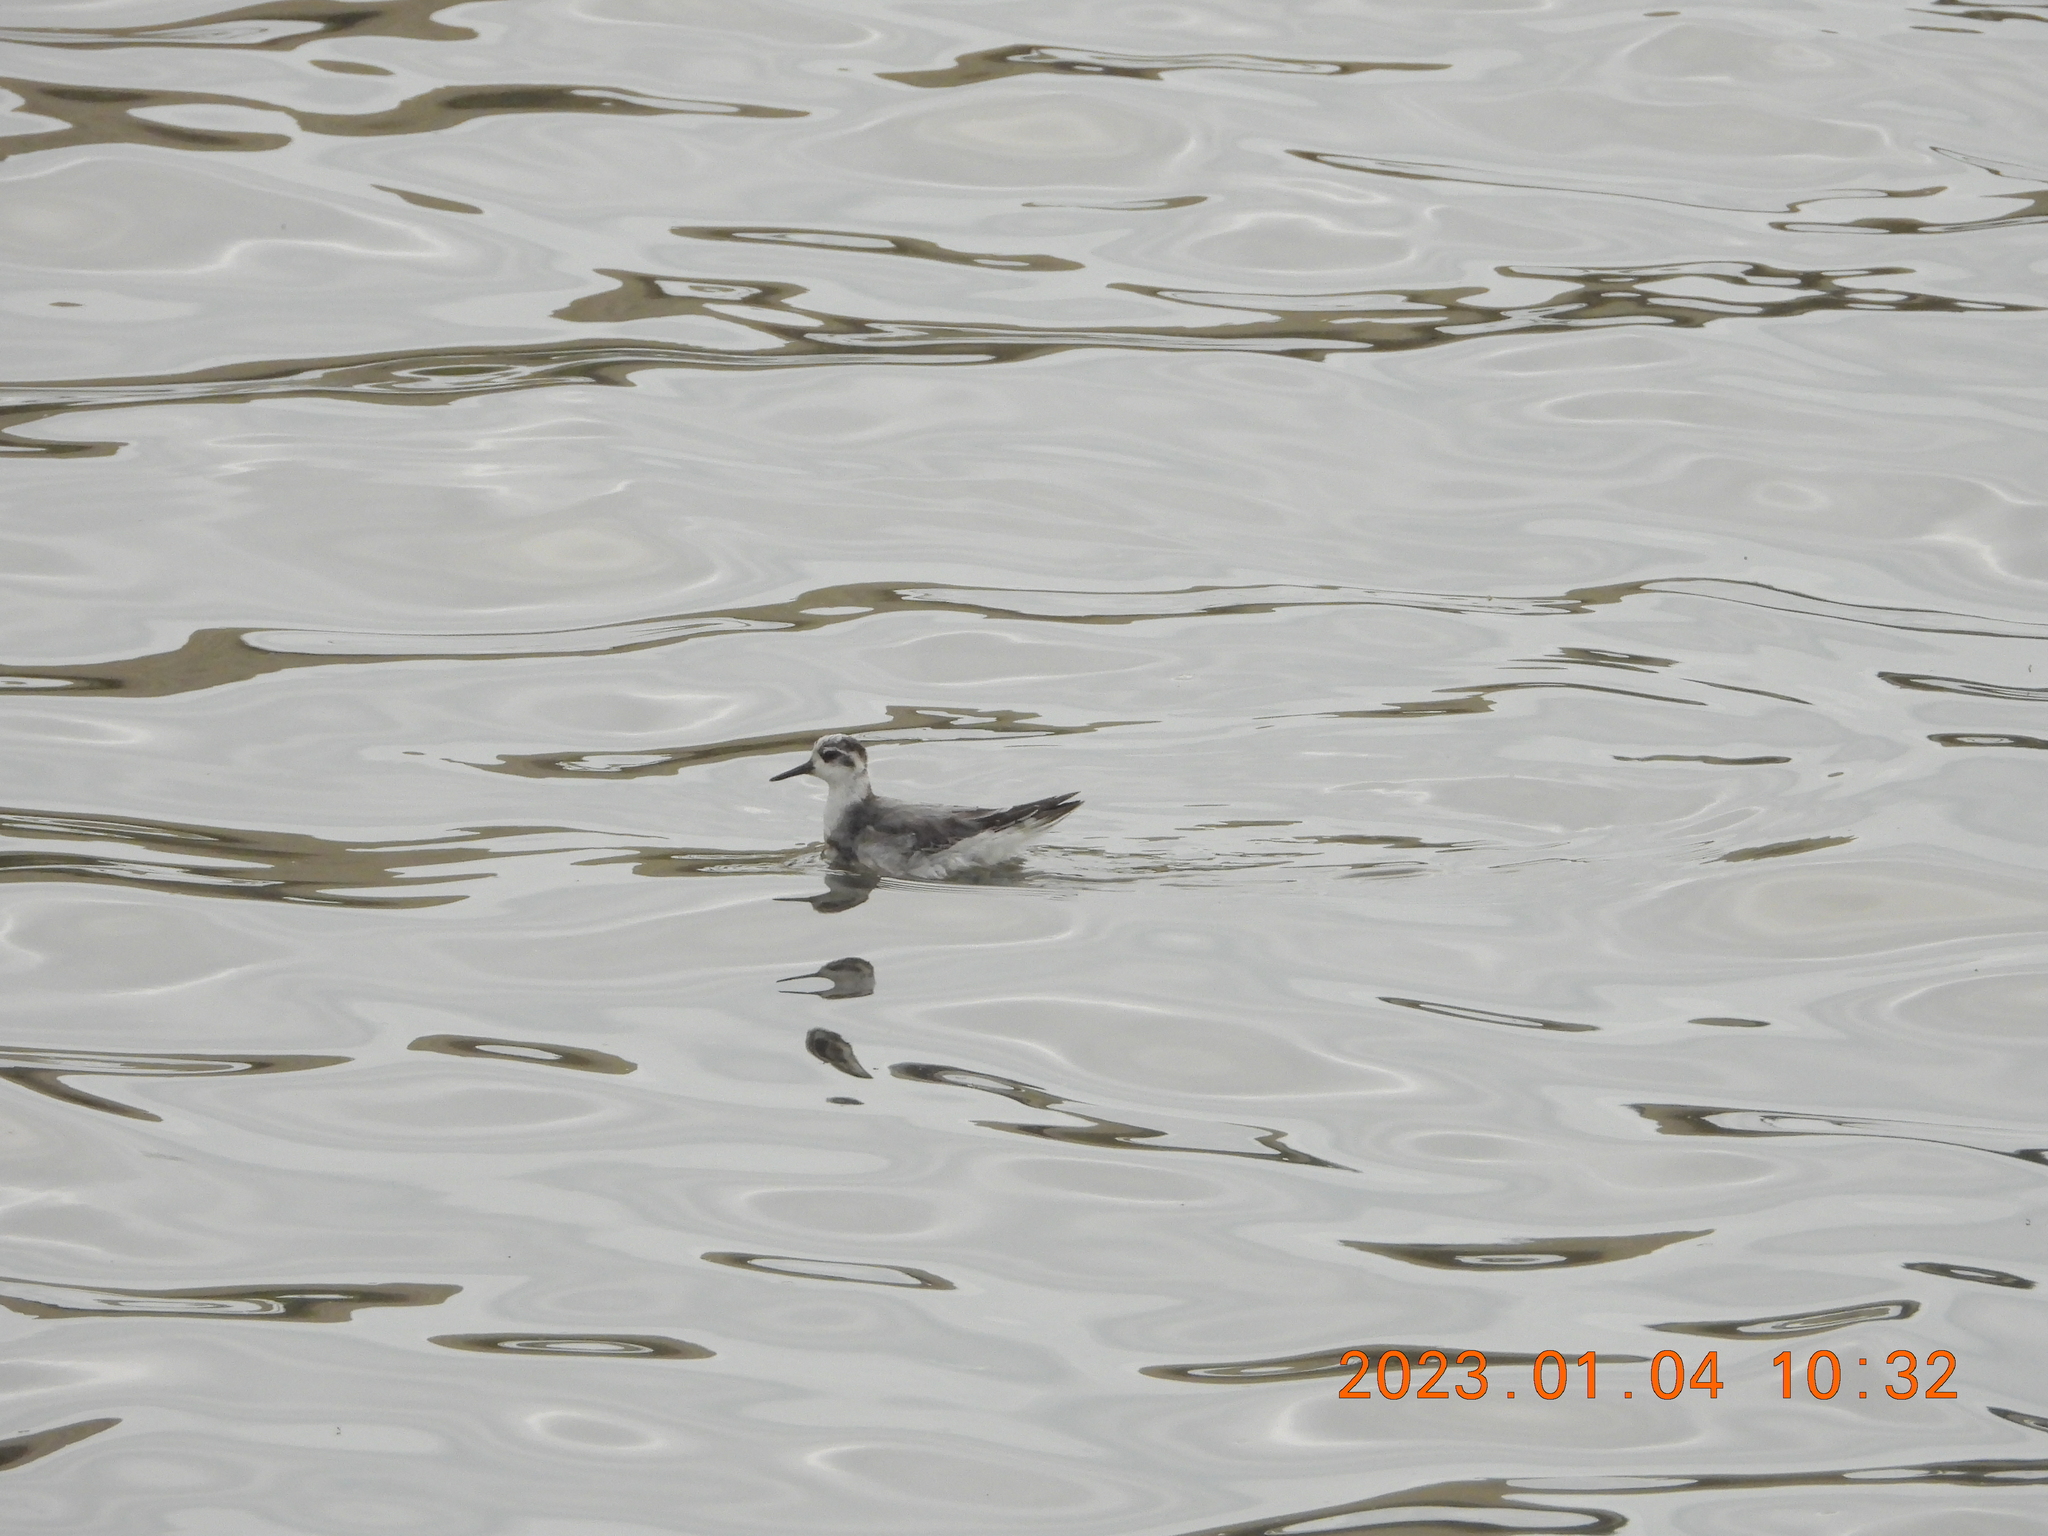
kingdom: Animalia
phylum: Chordata
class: Aves
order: Charadriiformes
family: Scolopacidae
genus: Phalaropus
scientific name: Phalaropus lobatus
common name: Red-necked phalarope
